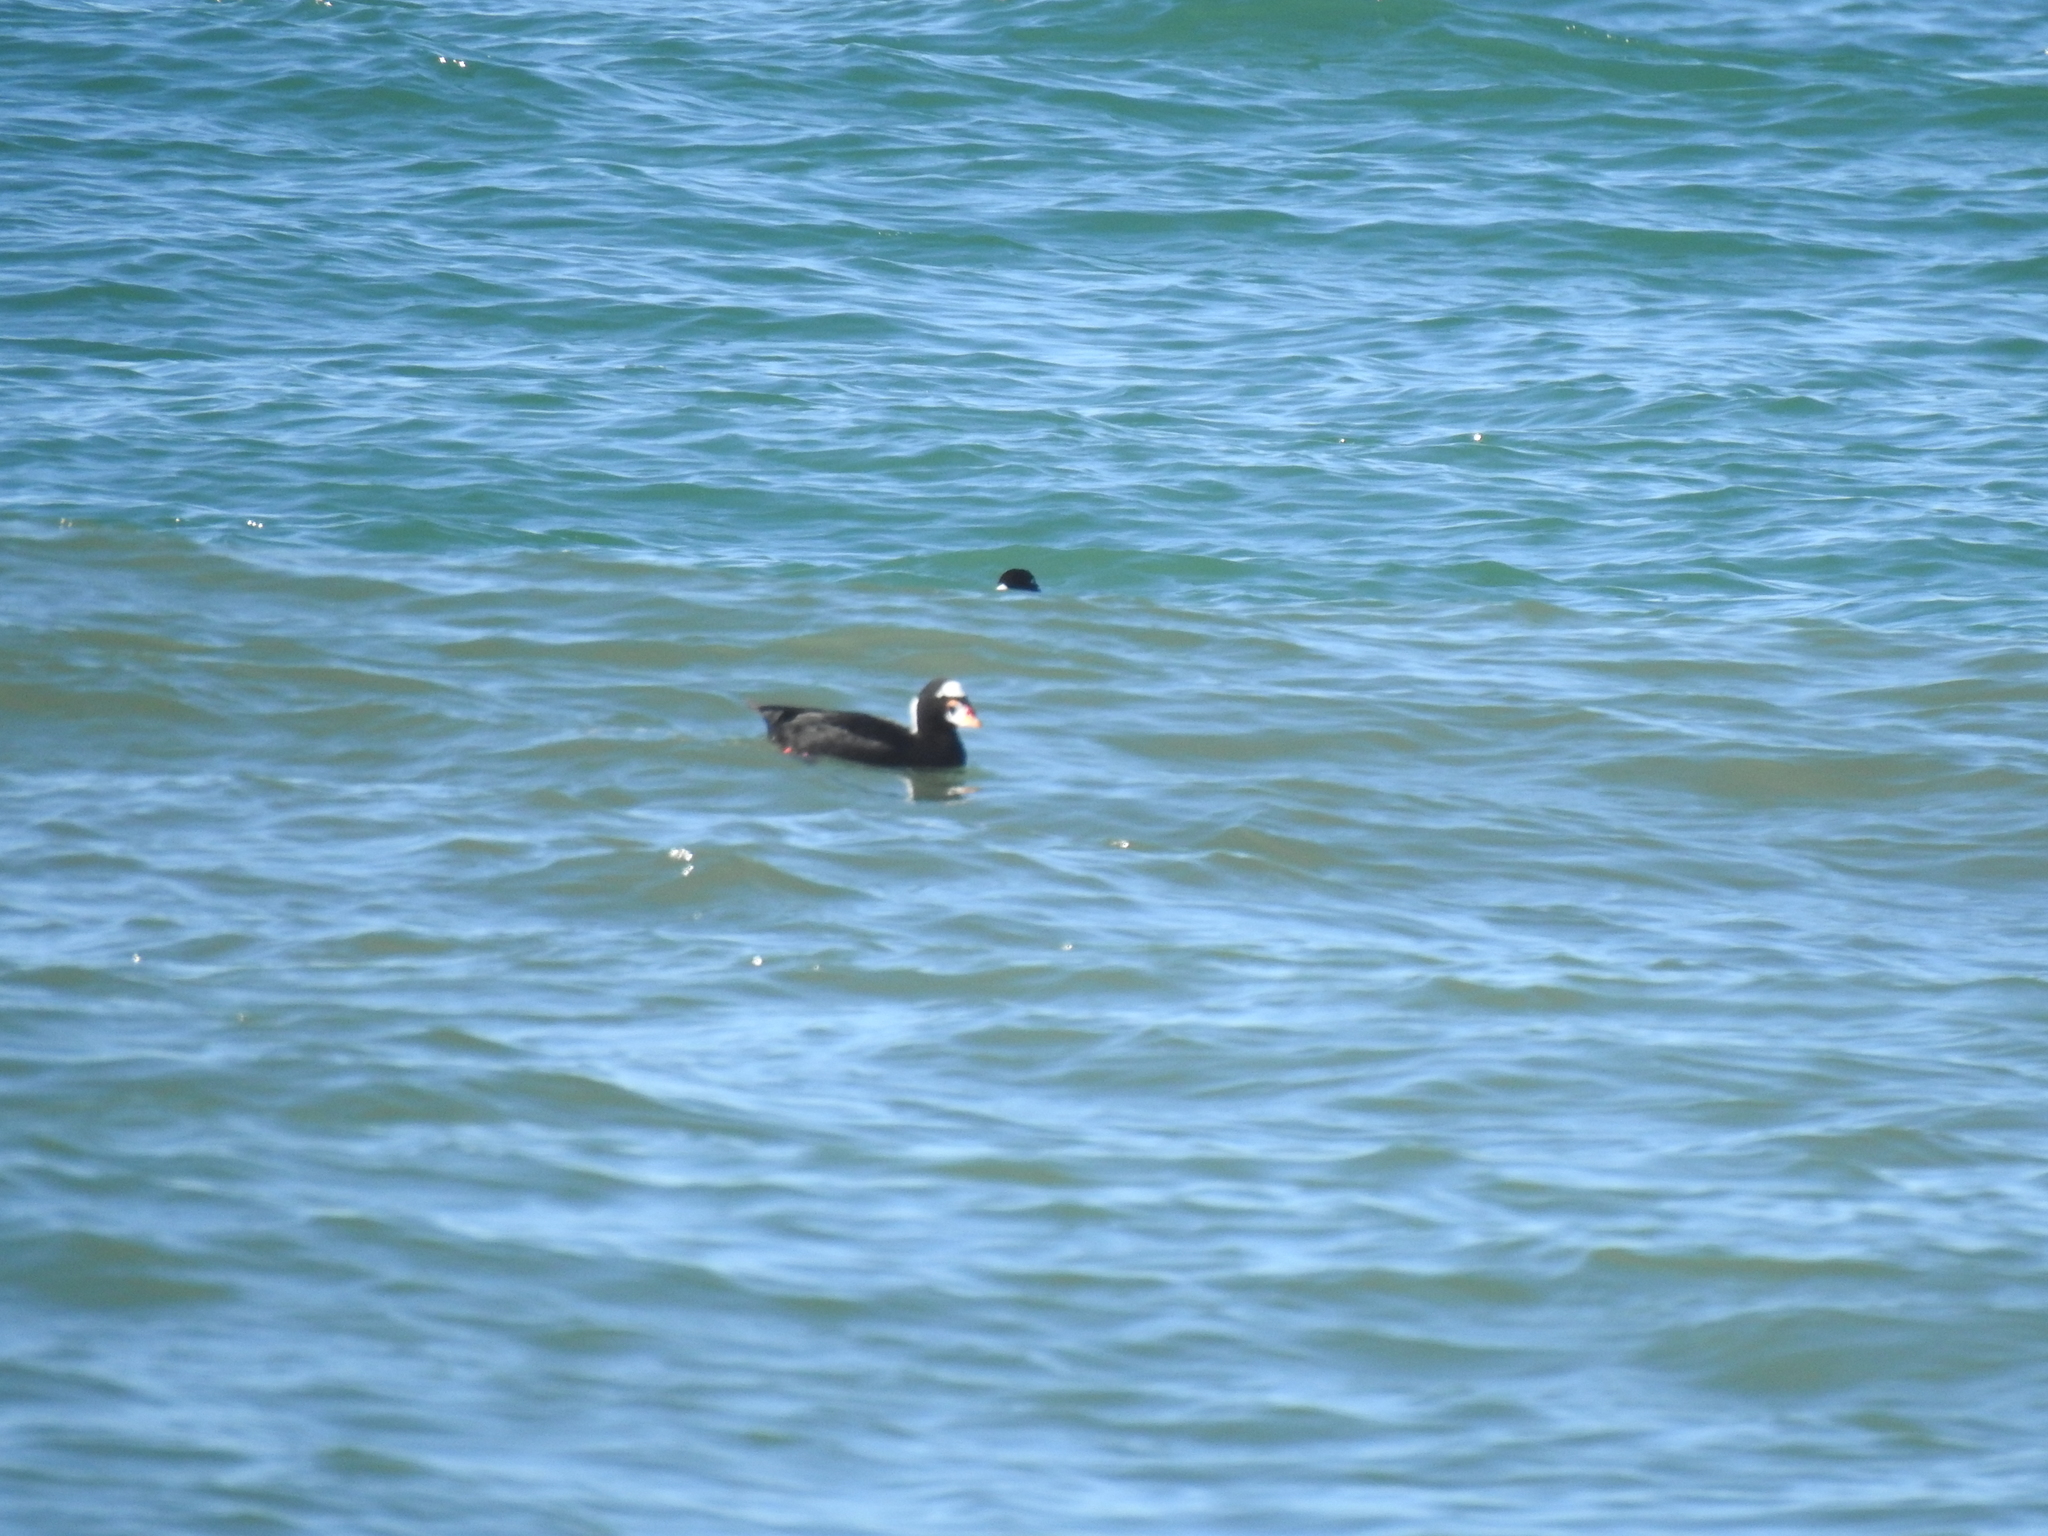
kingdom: Animalia
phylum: Chordata
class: Aves
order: Anseriformes
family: Anatidae
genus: Melanitta
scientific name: Melanitta perspicillata
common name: Surf scoter
